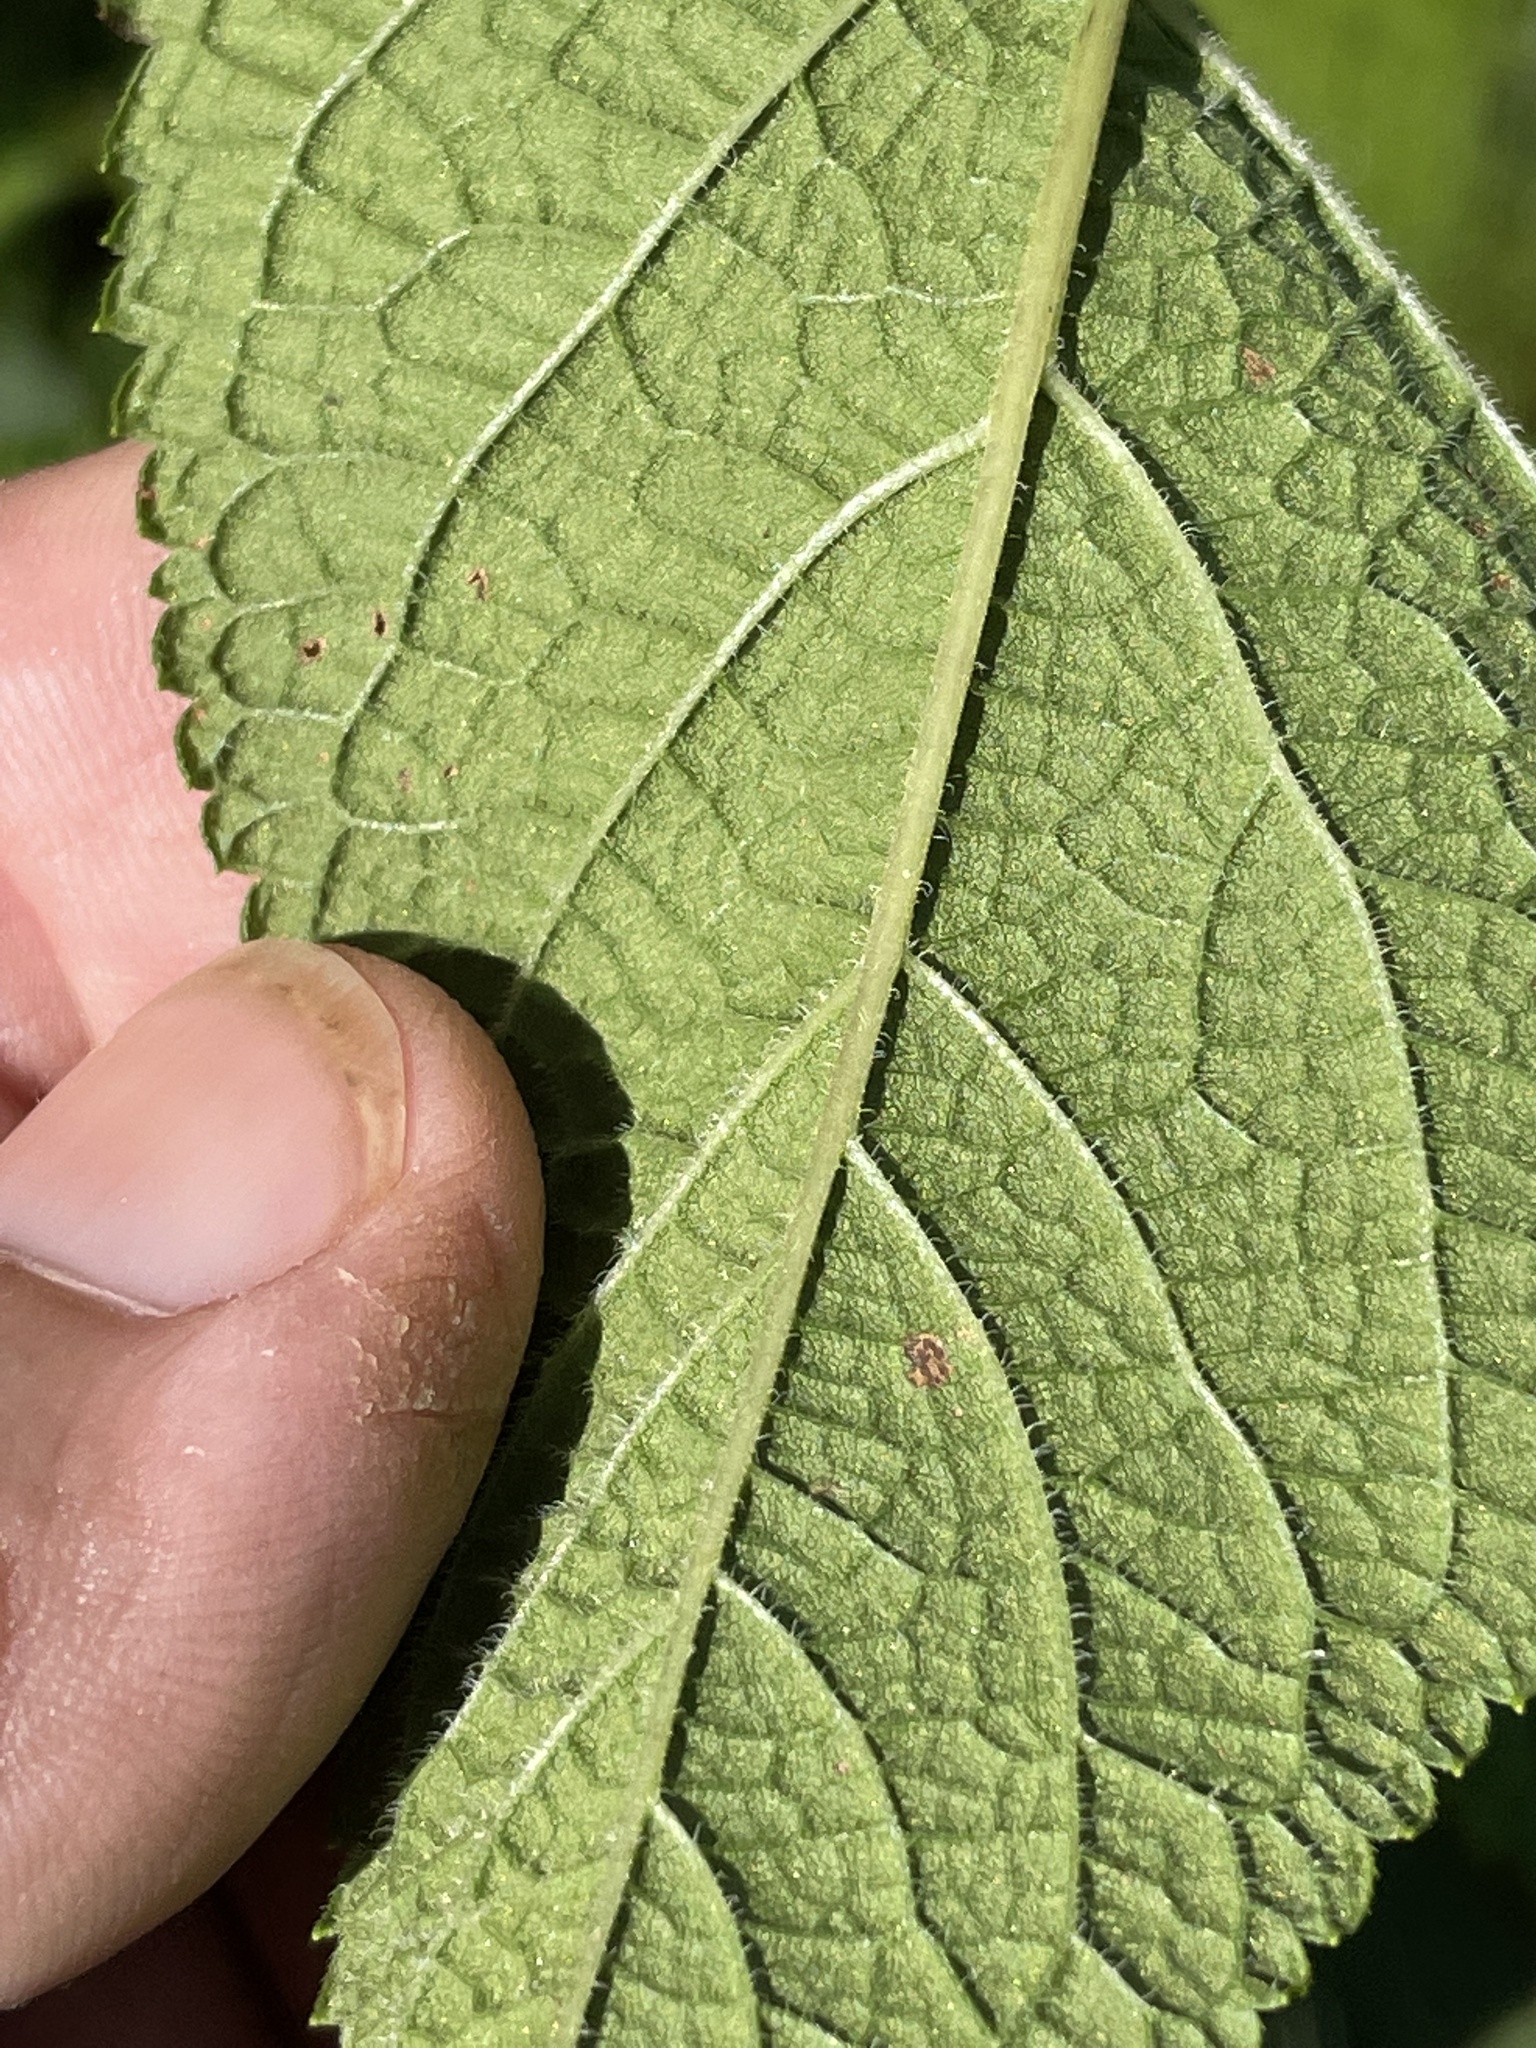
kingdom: Plantae
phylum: Tracheophyta
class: Magnoliopsida
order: Asterales
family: Asteraceae
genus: Eutrochium
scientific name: Eutrochium fistulosum
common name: Trumpetweed
